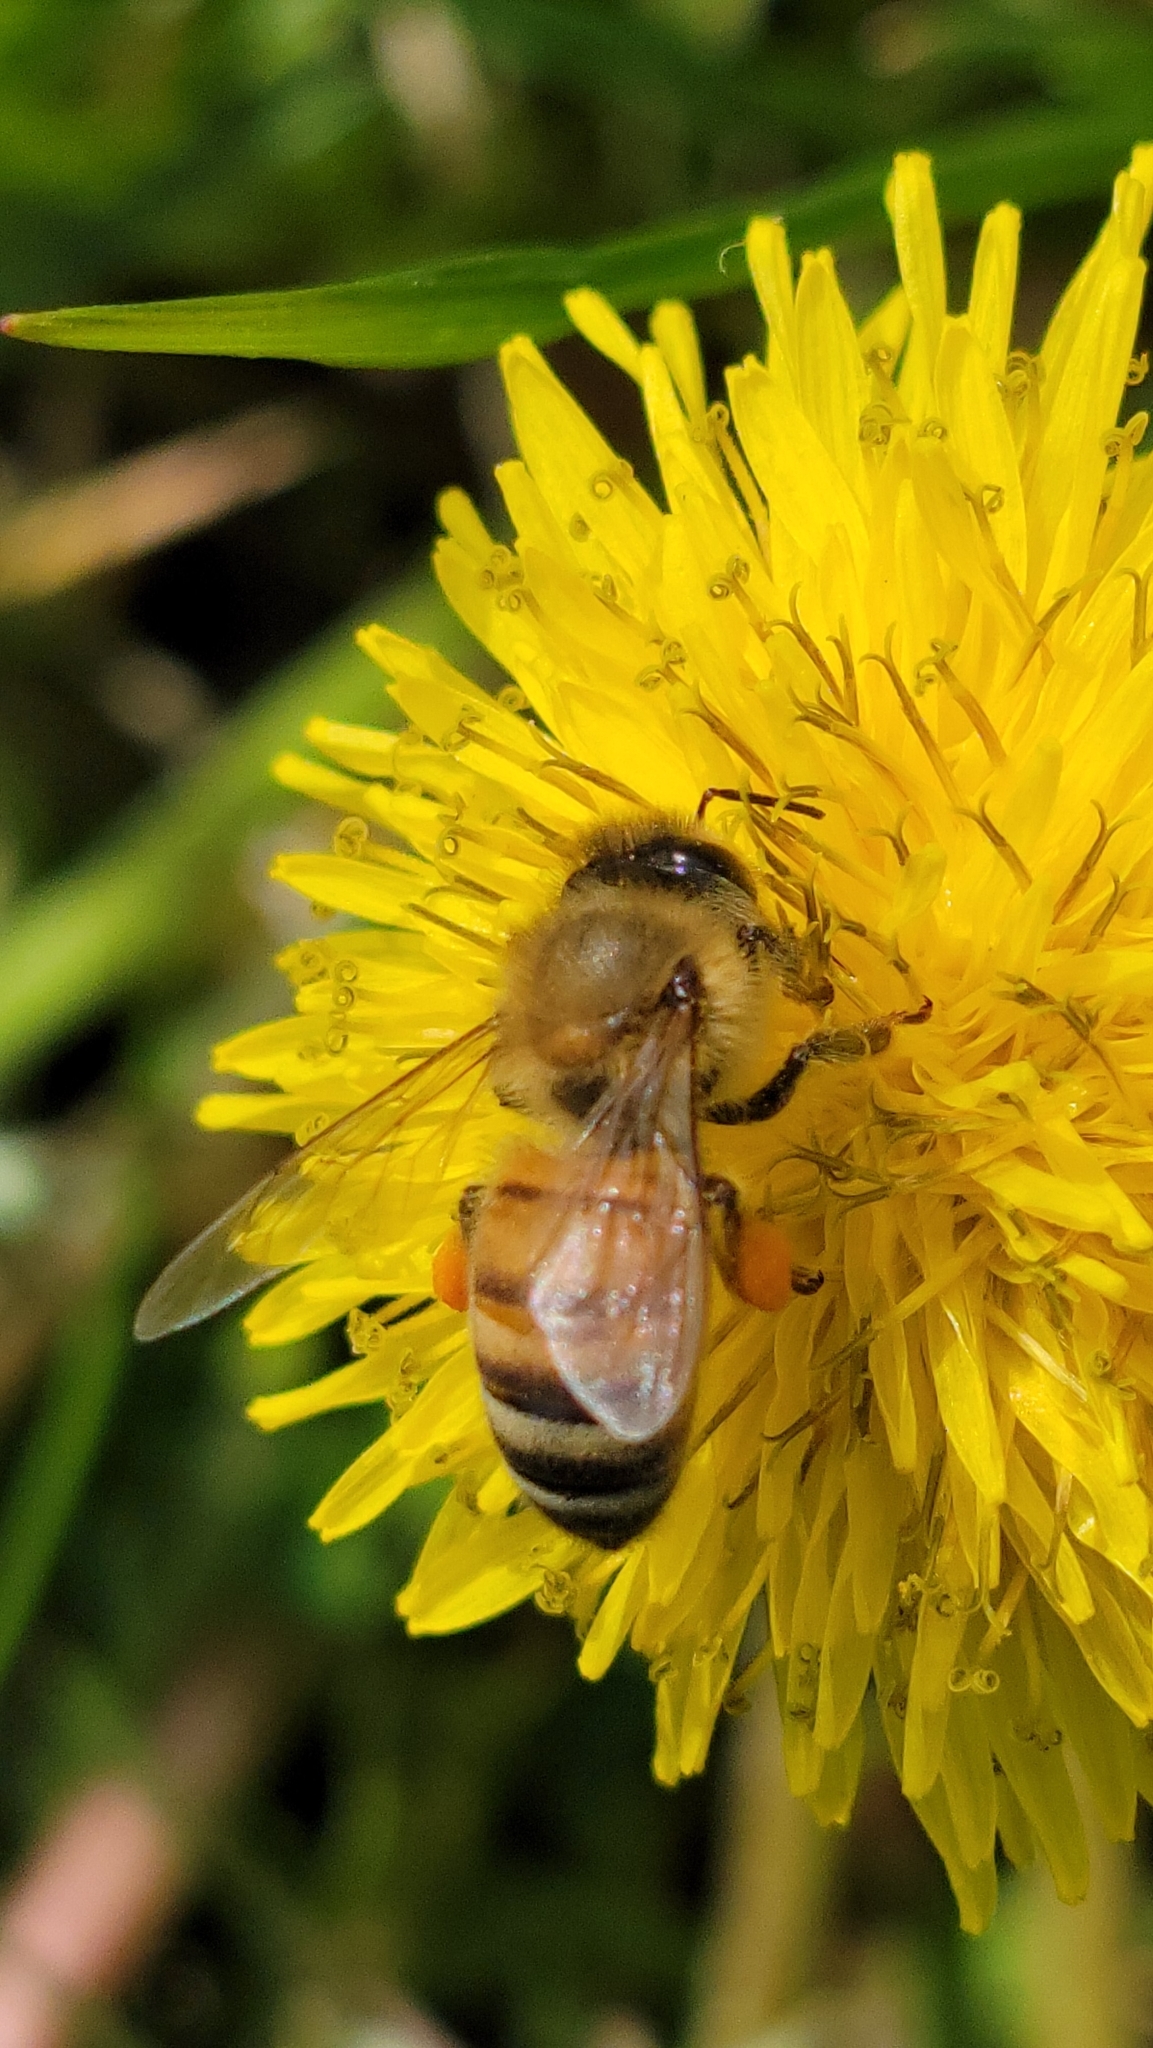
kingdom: Animalia
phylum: Arthropoda
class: Insecta
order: Hymenoptera
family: Apidae
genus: Apis
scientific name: Apis mellifera
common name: Honey bee
